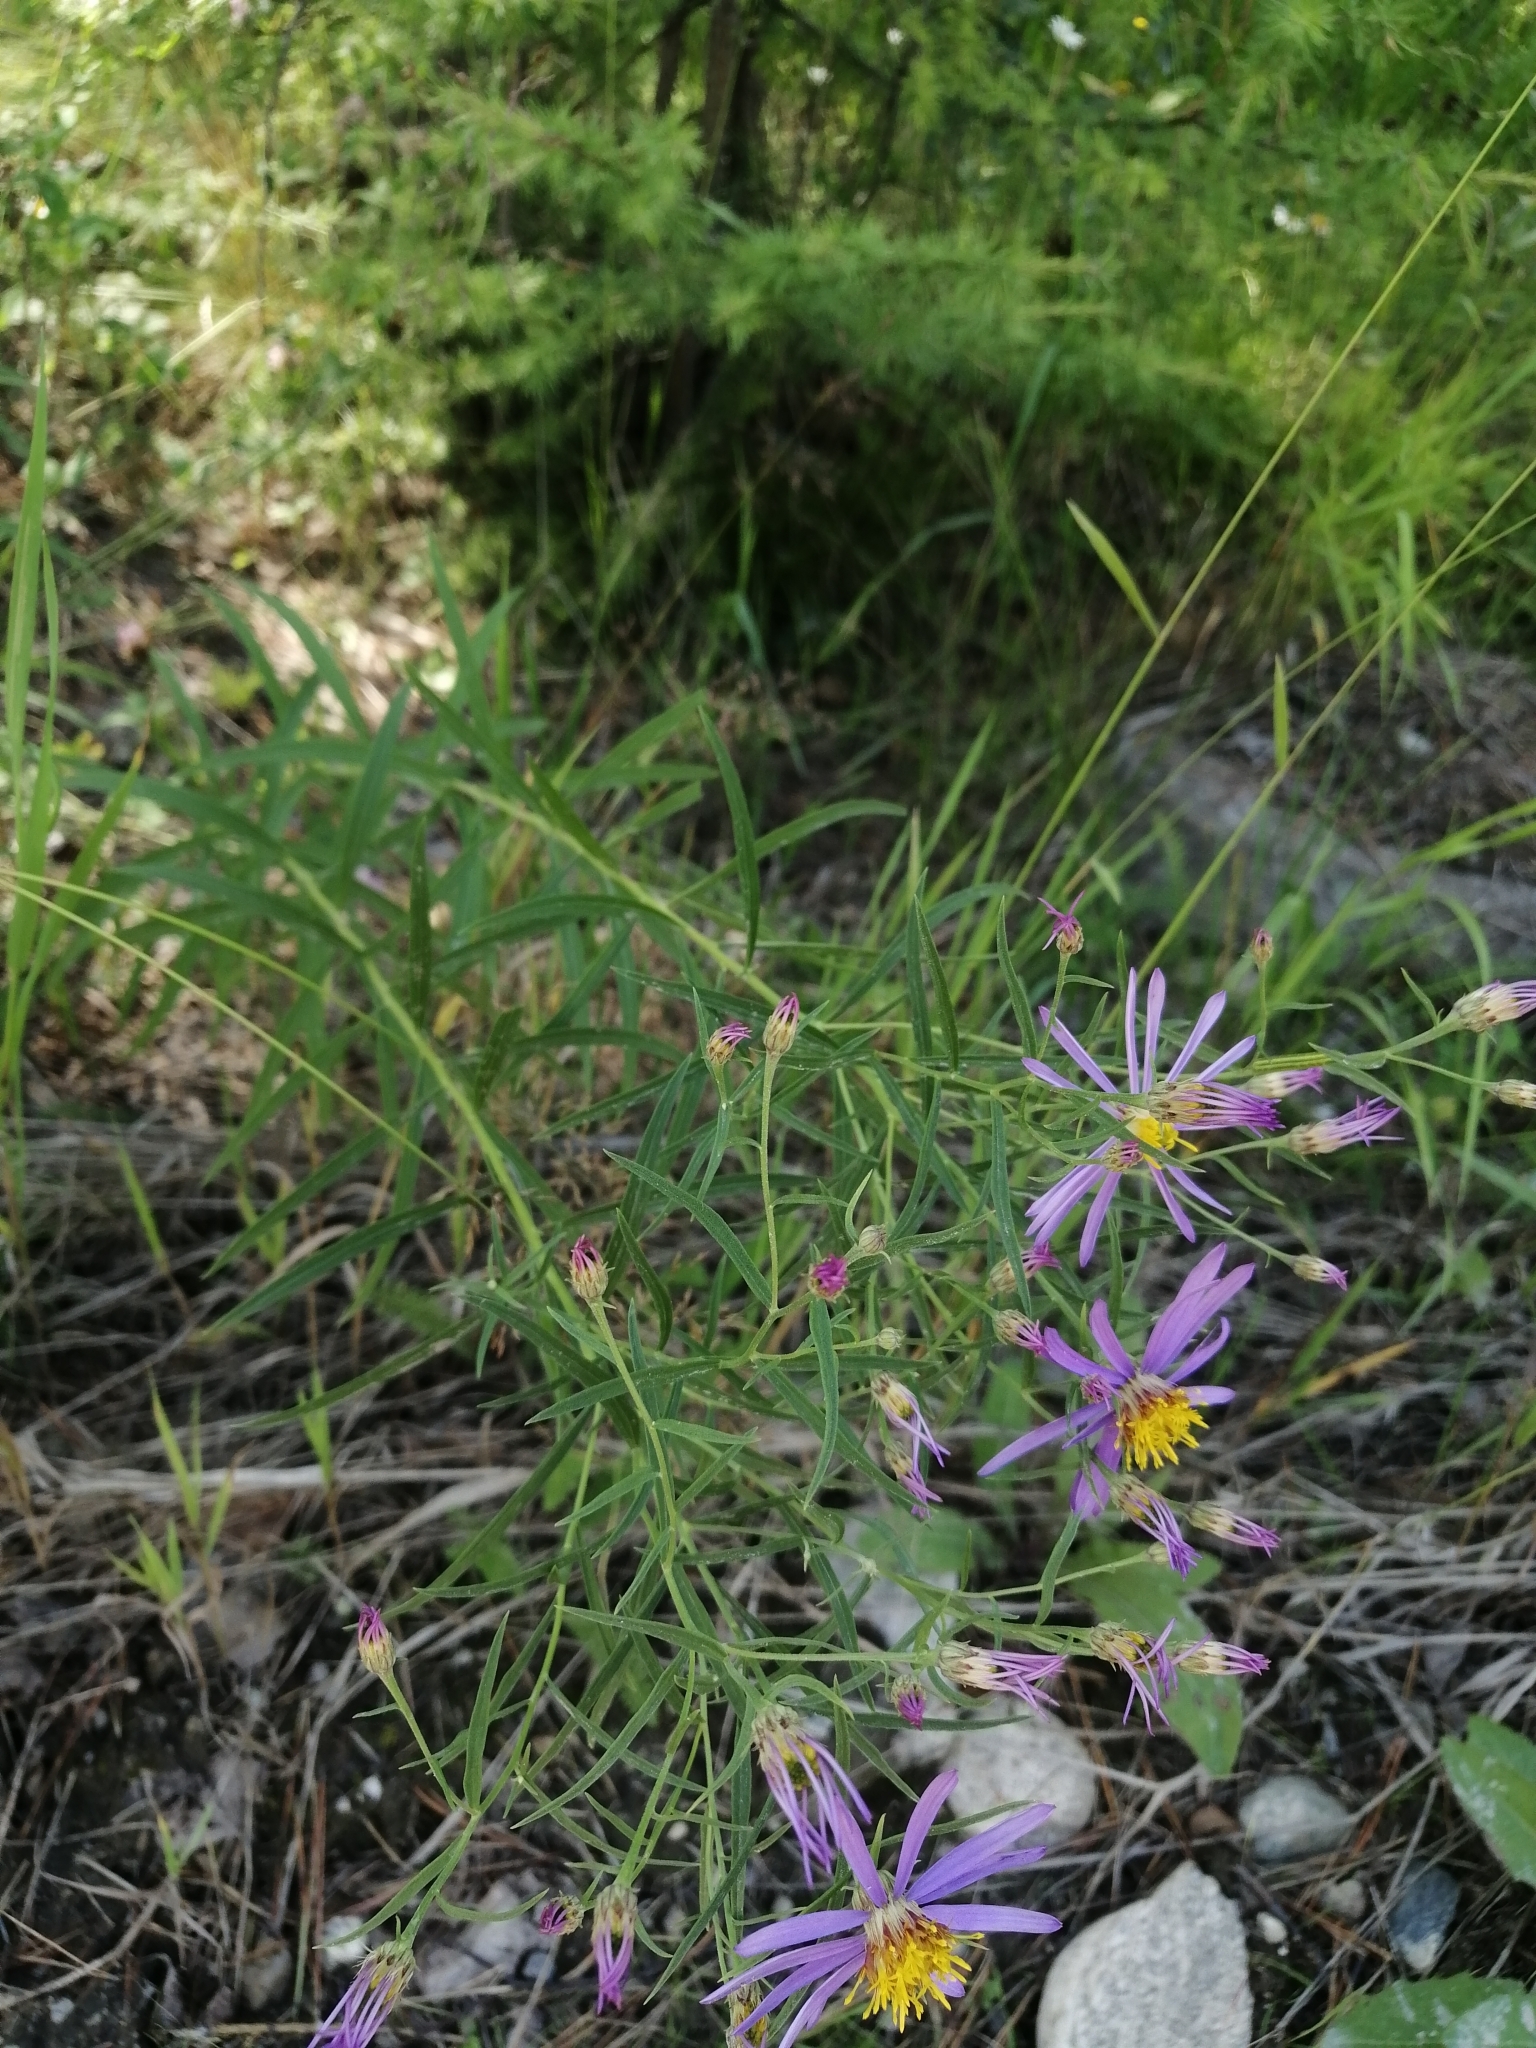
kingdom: Plantae
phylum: Tracheophyta
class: Magnoliopsida
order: Asterales
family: Asteraceae
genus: Galatella
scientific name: Galatella dahurica
